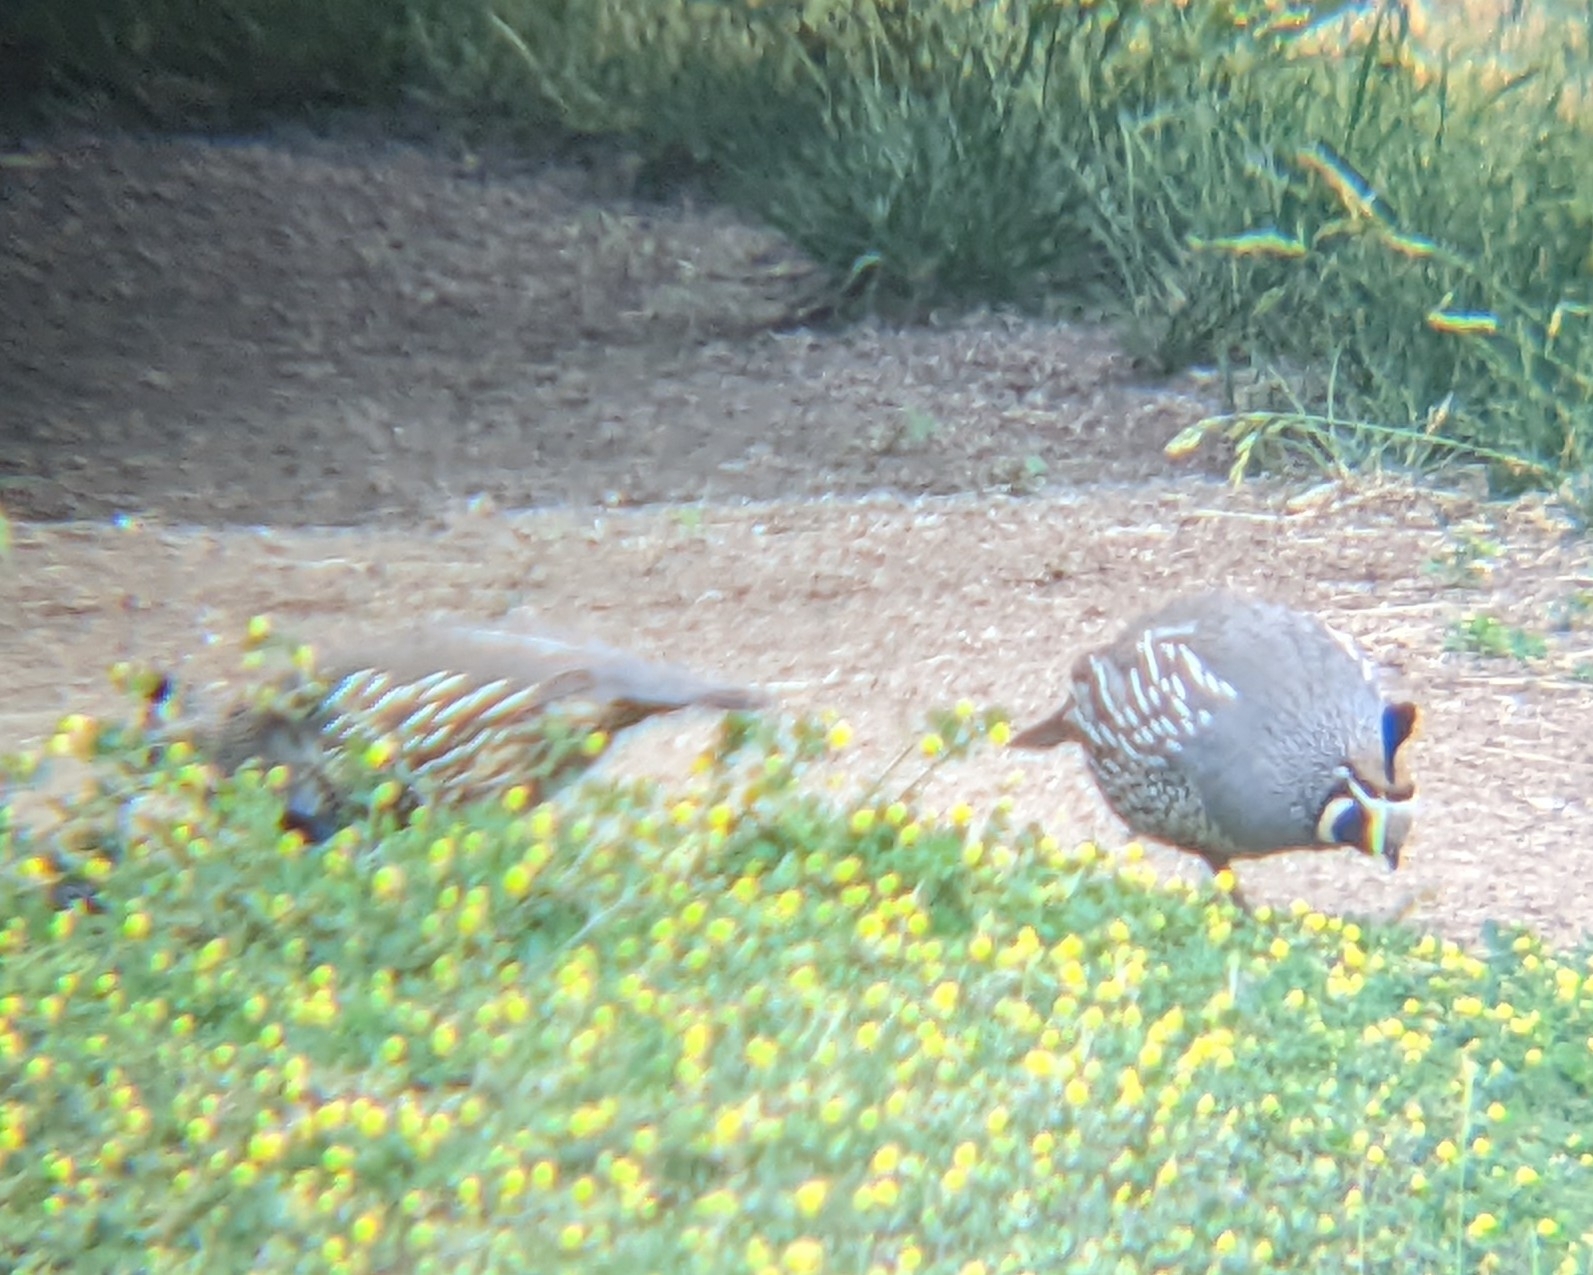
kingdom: Animalia
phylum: Chordata
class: Aves
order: Galliformes
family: Odontophoridae
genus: Callipepla
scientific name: Callipepla californica
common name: California quail
